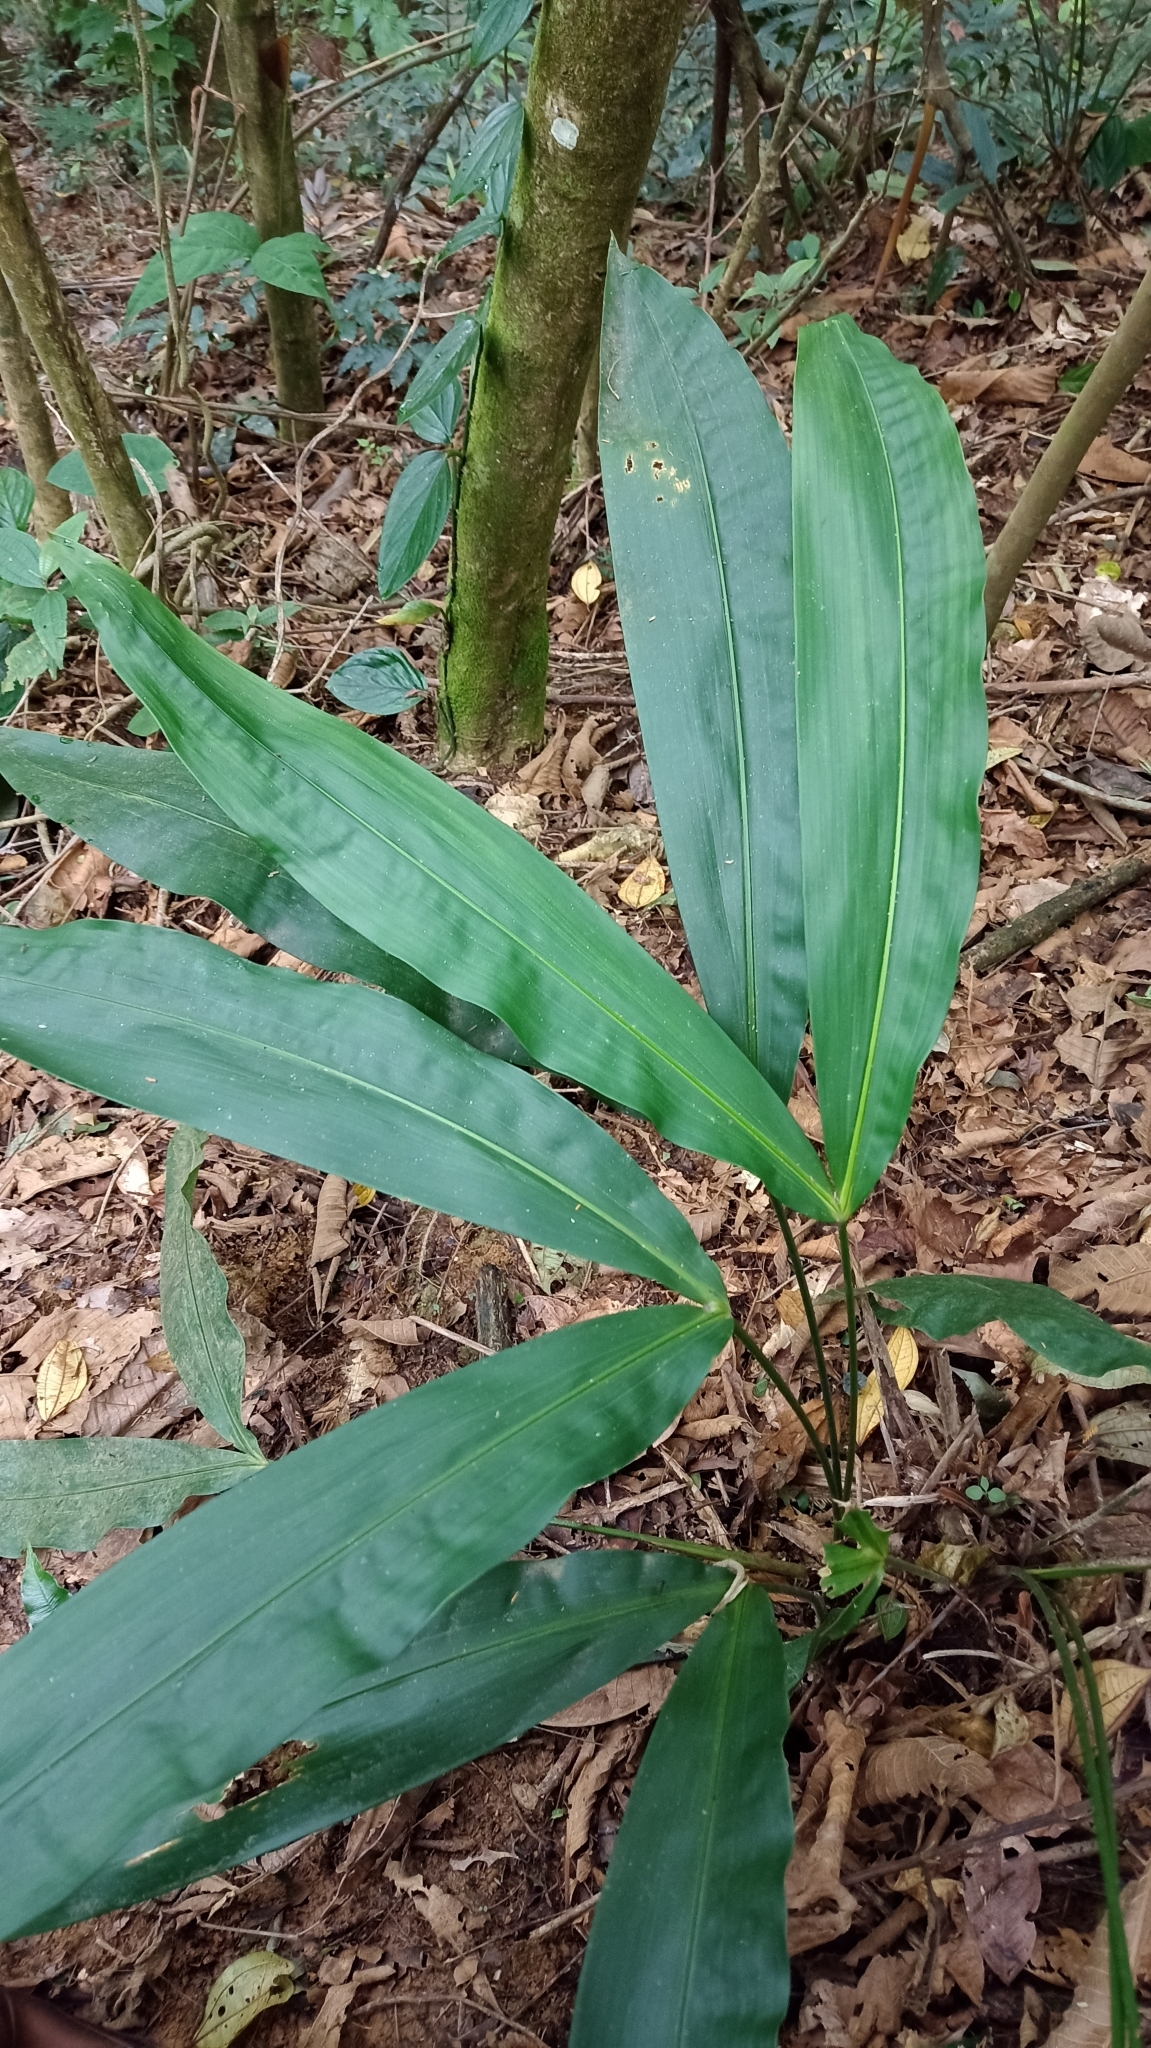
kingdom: Plantae
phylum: Tracheophyta
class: Liliopsida
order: Pandanales
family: Cyclanthaceae
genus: Cyclanthus
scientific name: Cyclanthus bipartitus
